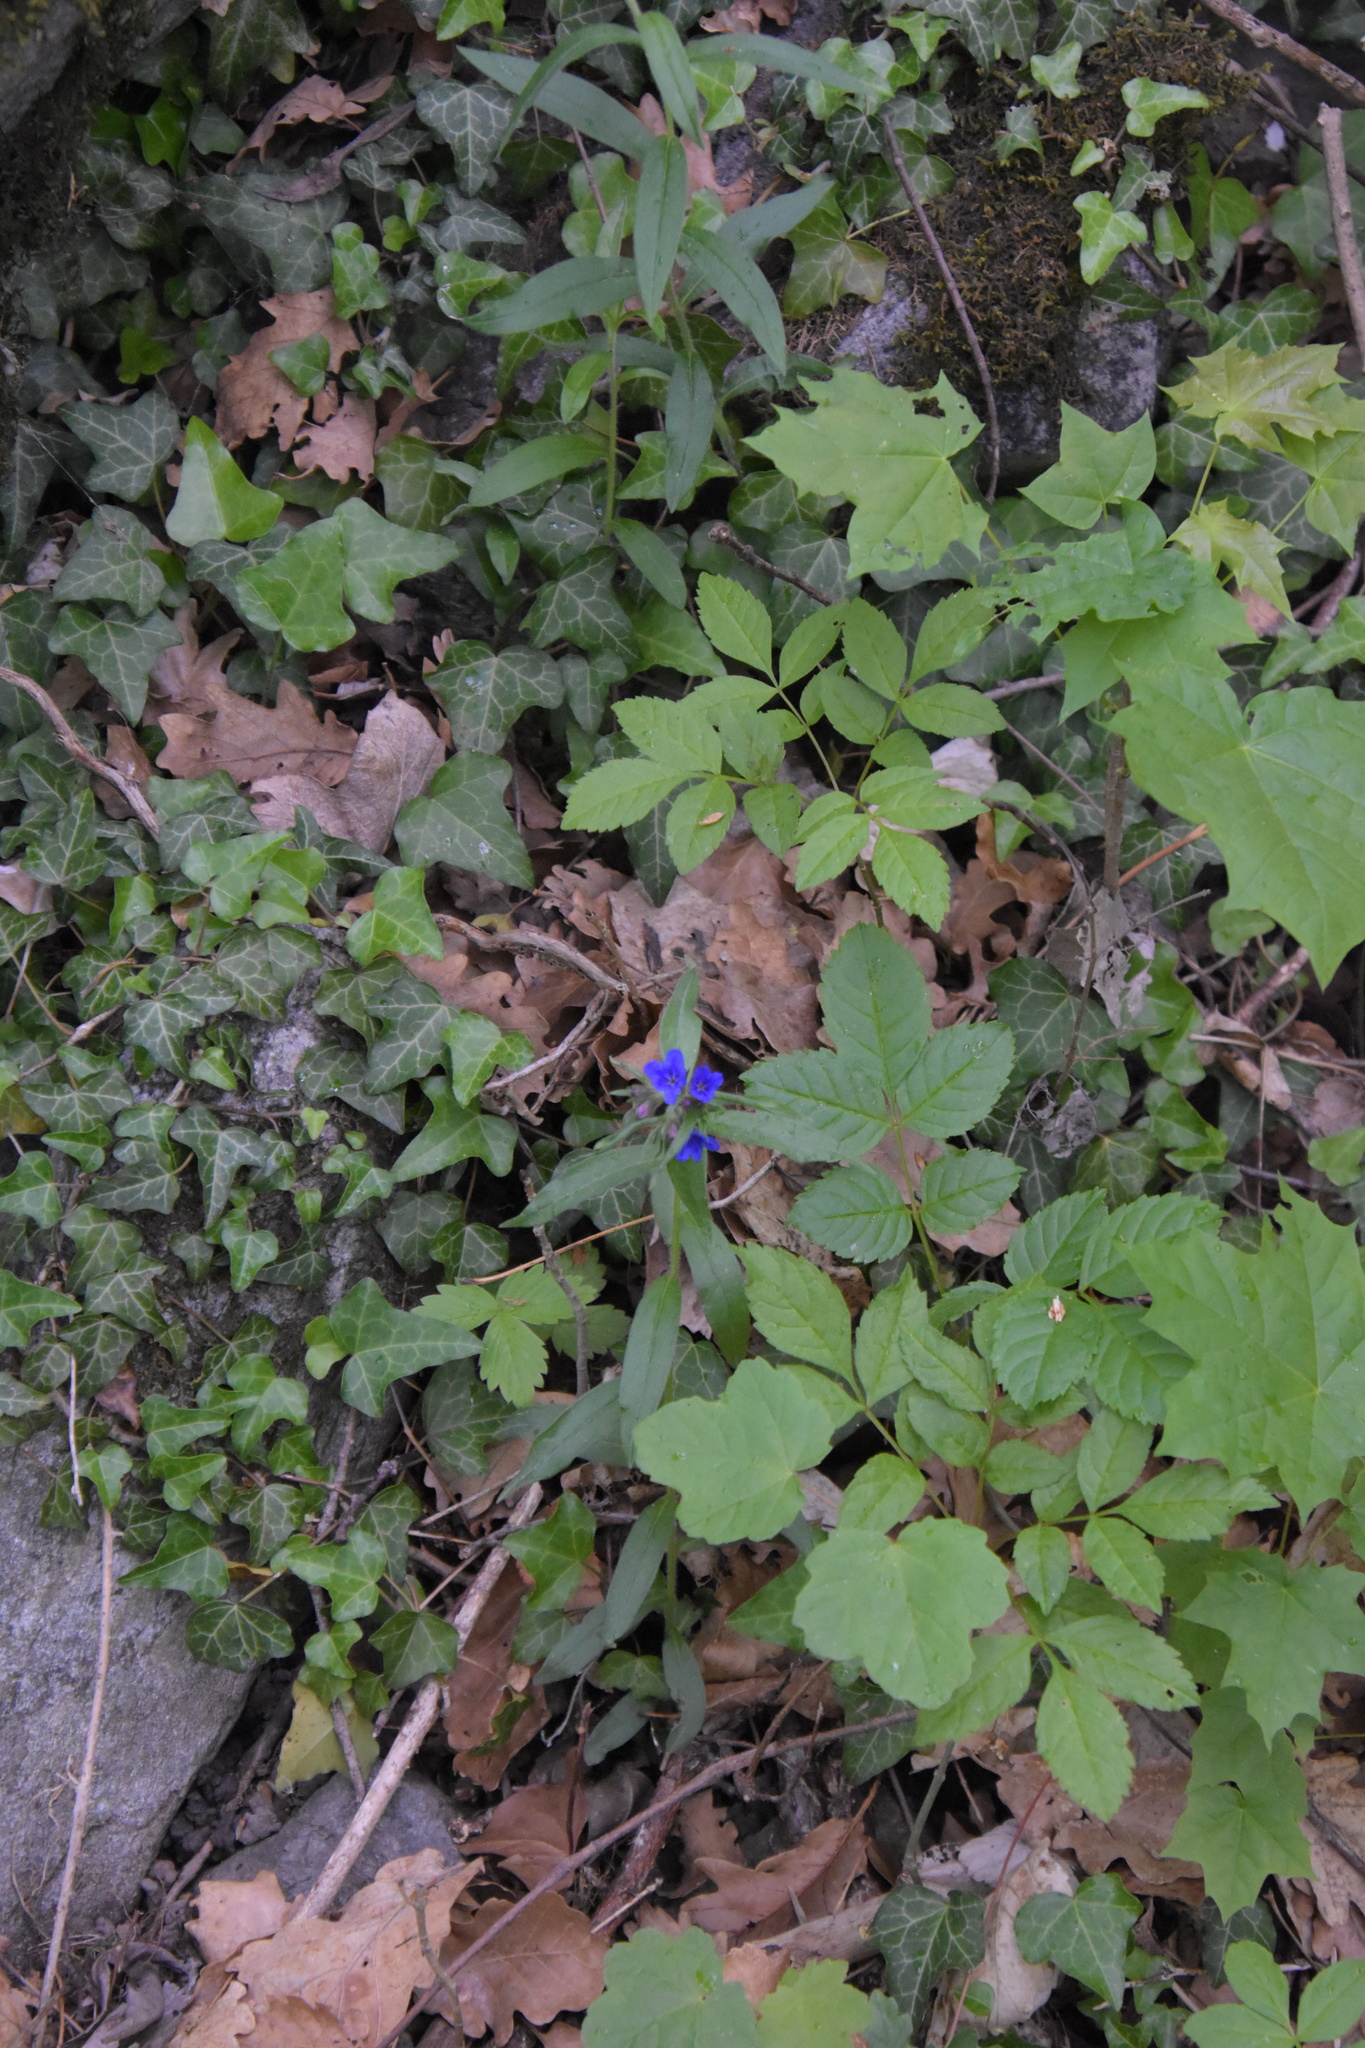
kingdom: Plantae
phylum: Tracheophyta
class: Magnoliopsida
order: Boraginales
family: Boraginaceae
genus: Aegonychon
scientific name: Aegonychon purpurocaeruleum
